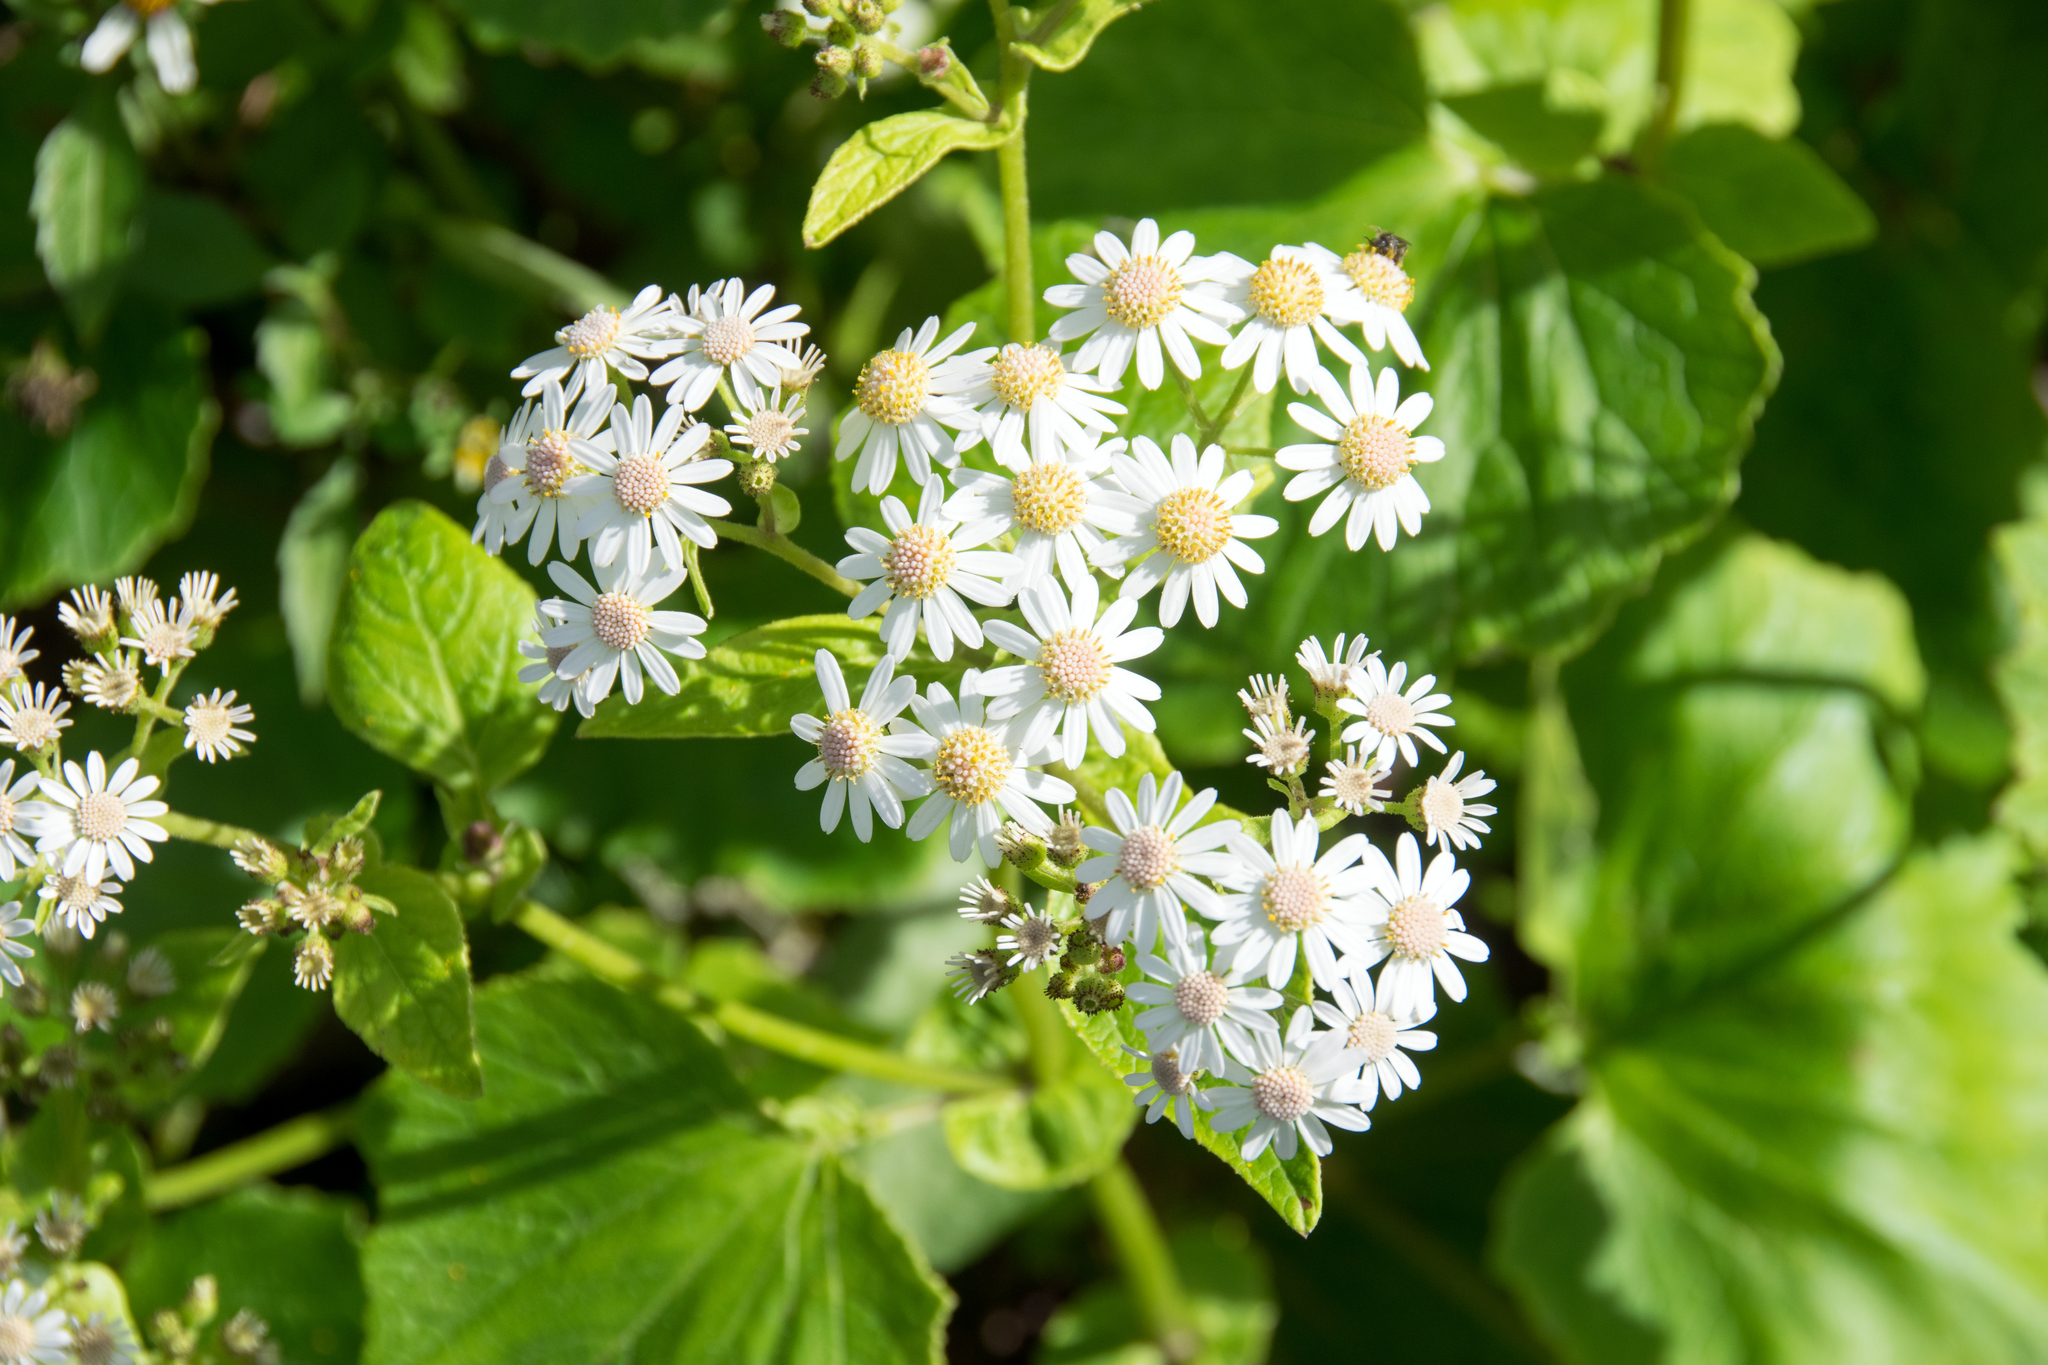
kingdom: Plantae
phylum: Tracheophyta
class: Magnoliopsida
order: Asterales
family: Asteraceae
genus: Pericallis
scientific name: Pericallis steetzii
